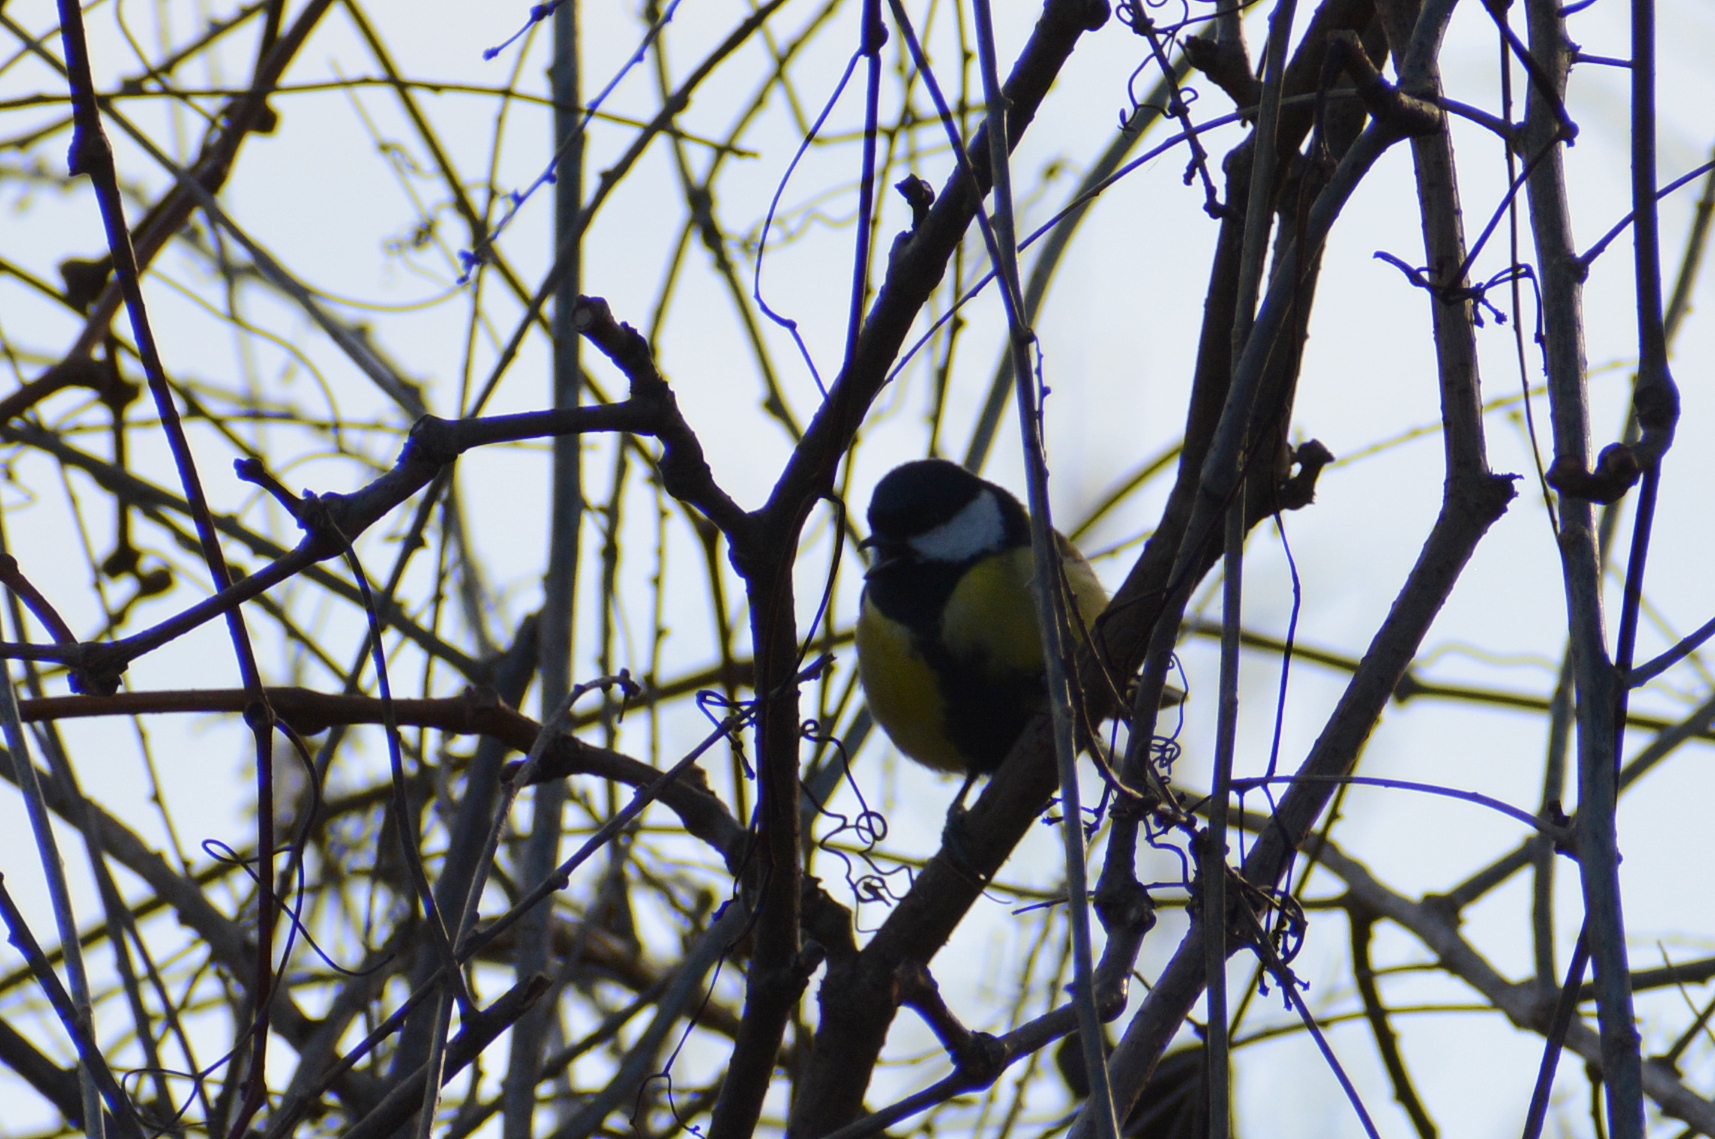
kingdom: Animalia
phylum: Chordata
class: Aves
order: Passeriformes
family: Paridae
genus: Parus
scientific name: Parus major
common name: Great tit
